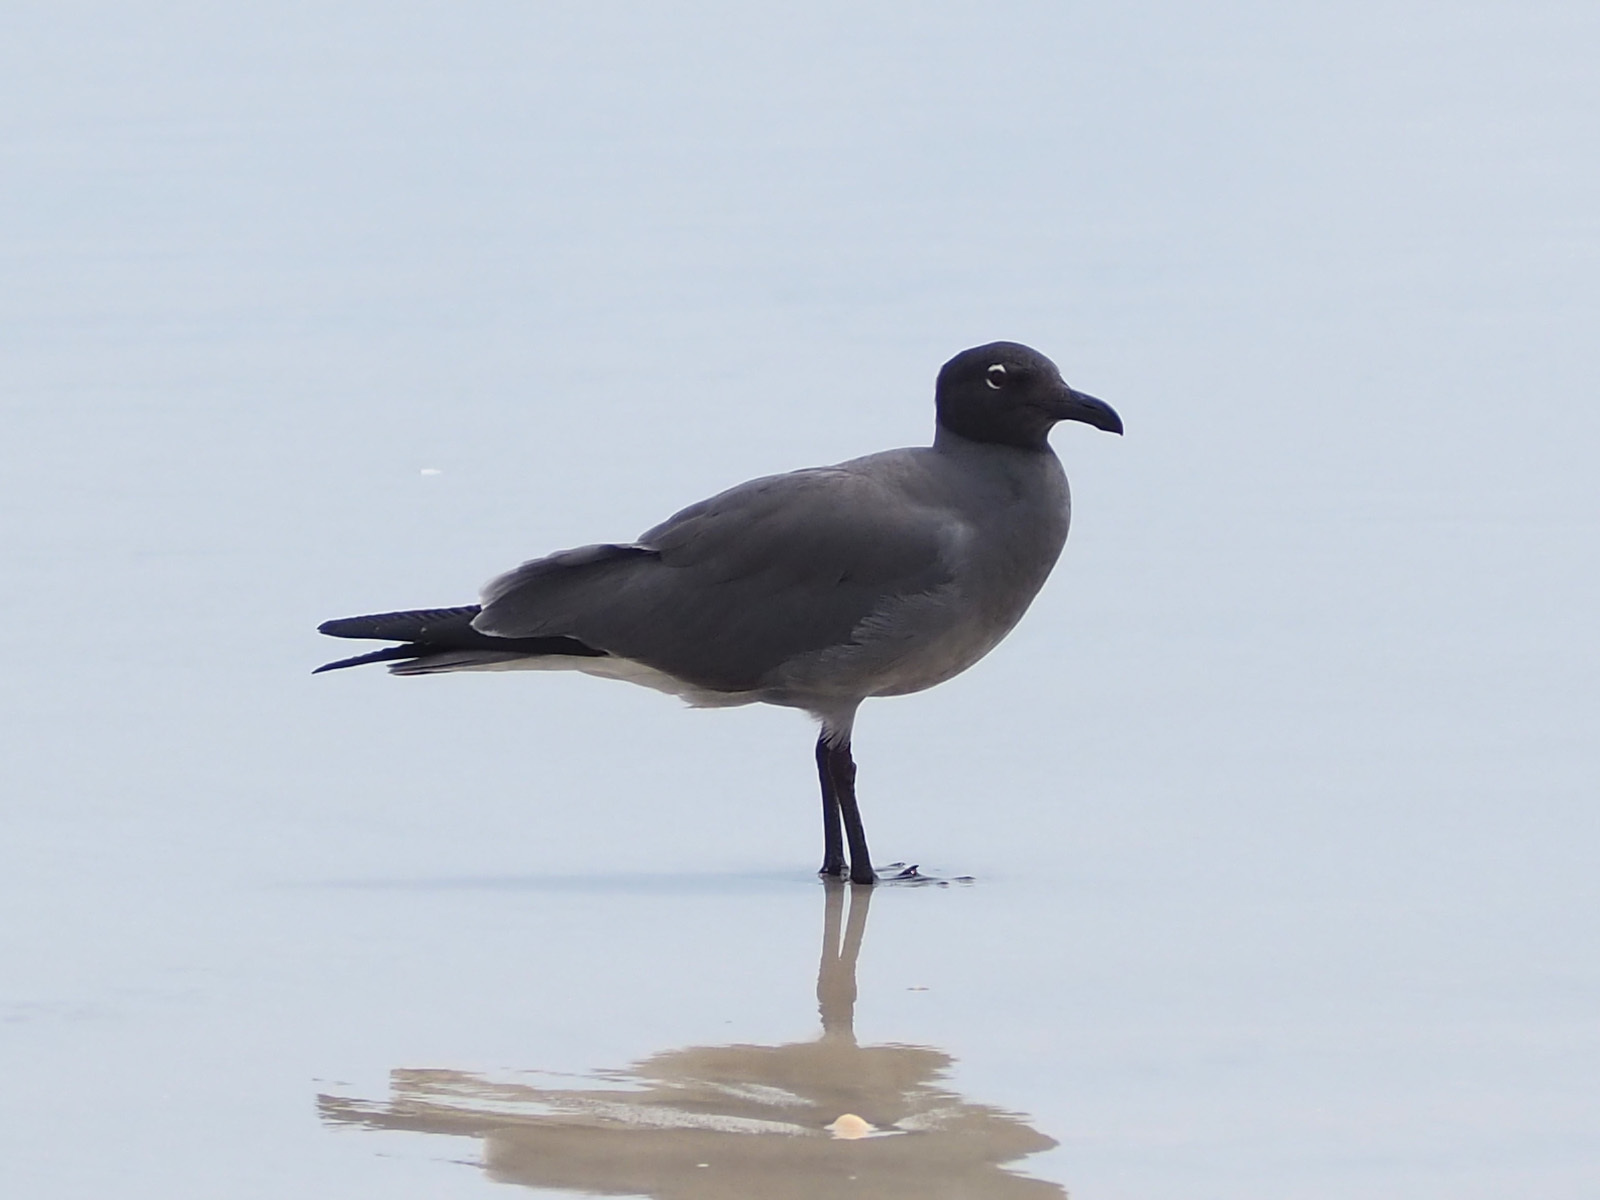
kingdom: Animalia
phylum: Chordata
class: Aves
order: Charadriiformes
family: Laridae
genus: Leucophaeus
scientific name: Leucophaeus fuliginosus
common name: Lava gull
